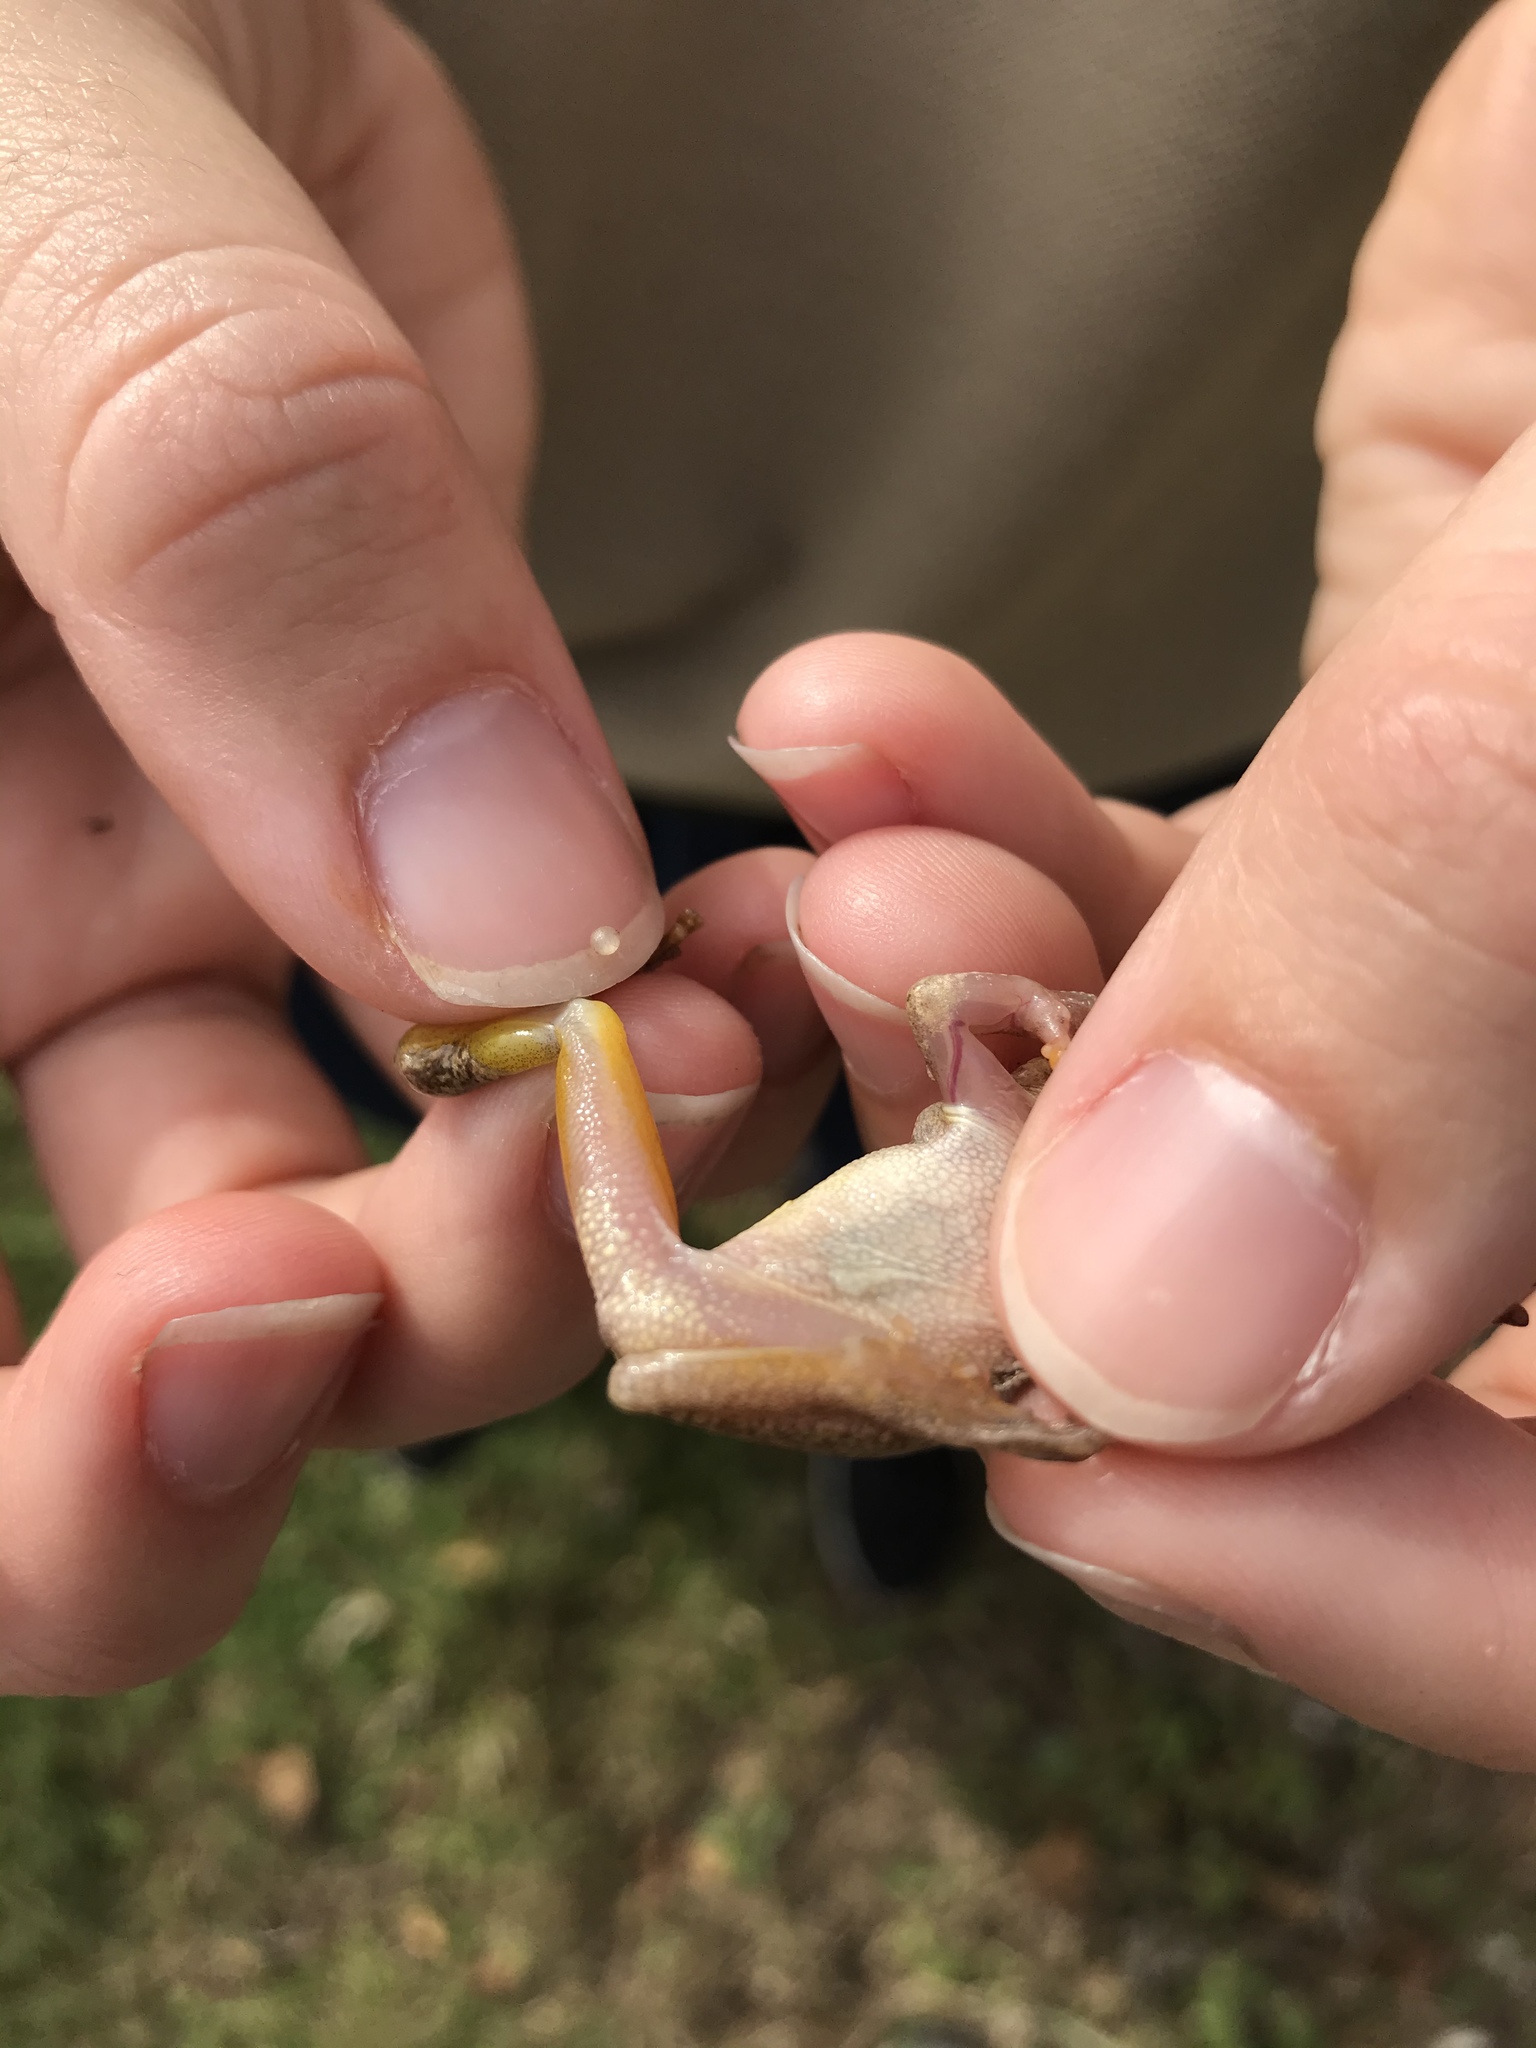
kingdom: Animalia
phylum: Chordata
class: Amphibia
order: Anura
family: Hylidae
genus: Dryophytes
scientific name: Dryophytes squirellus
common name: Squirrel treefrog
